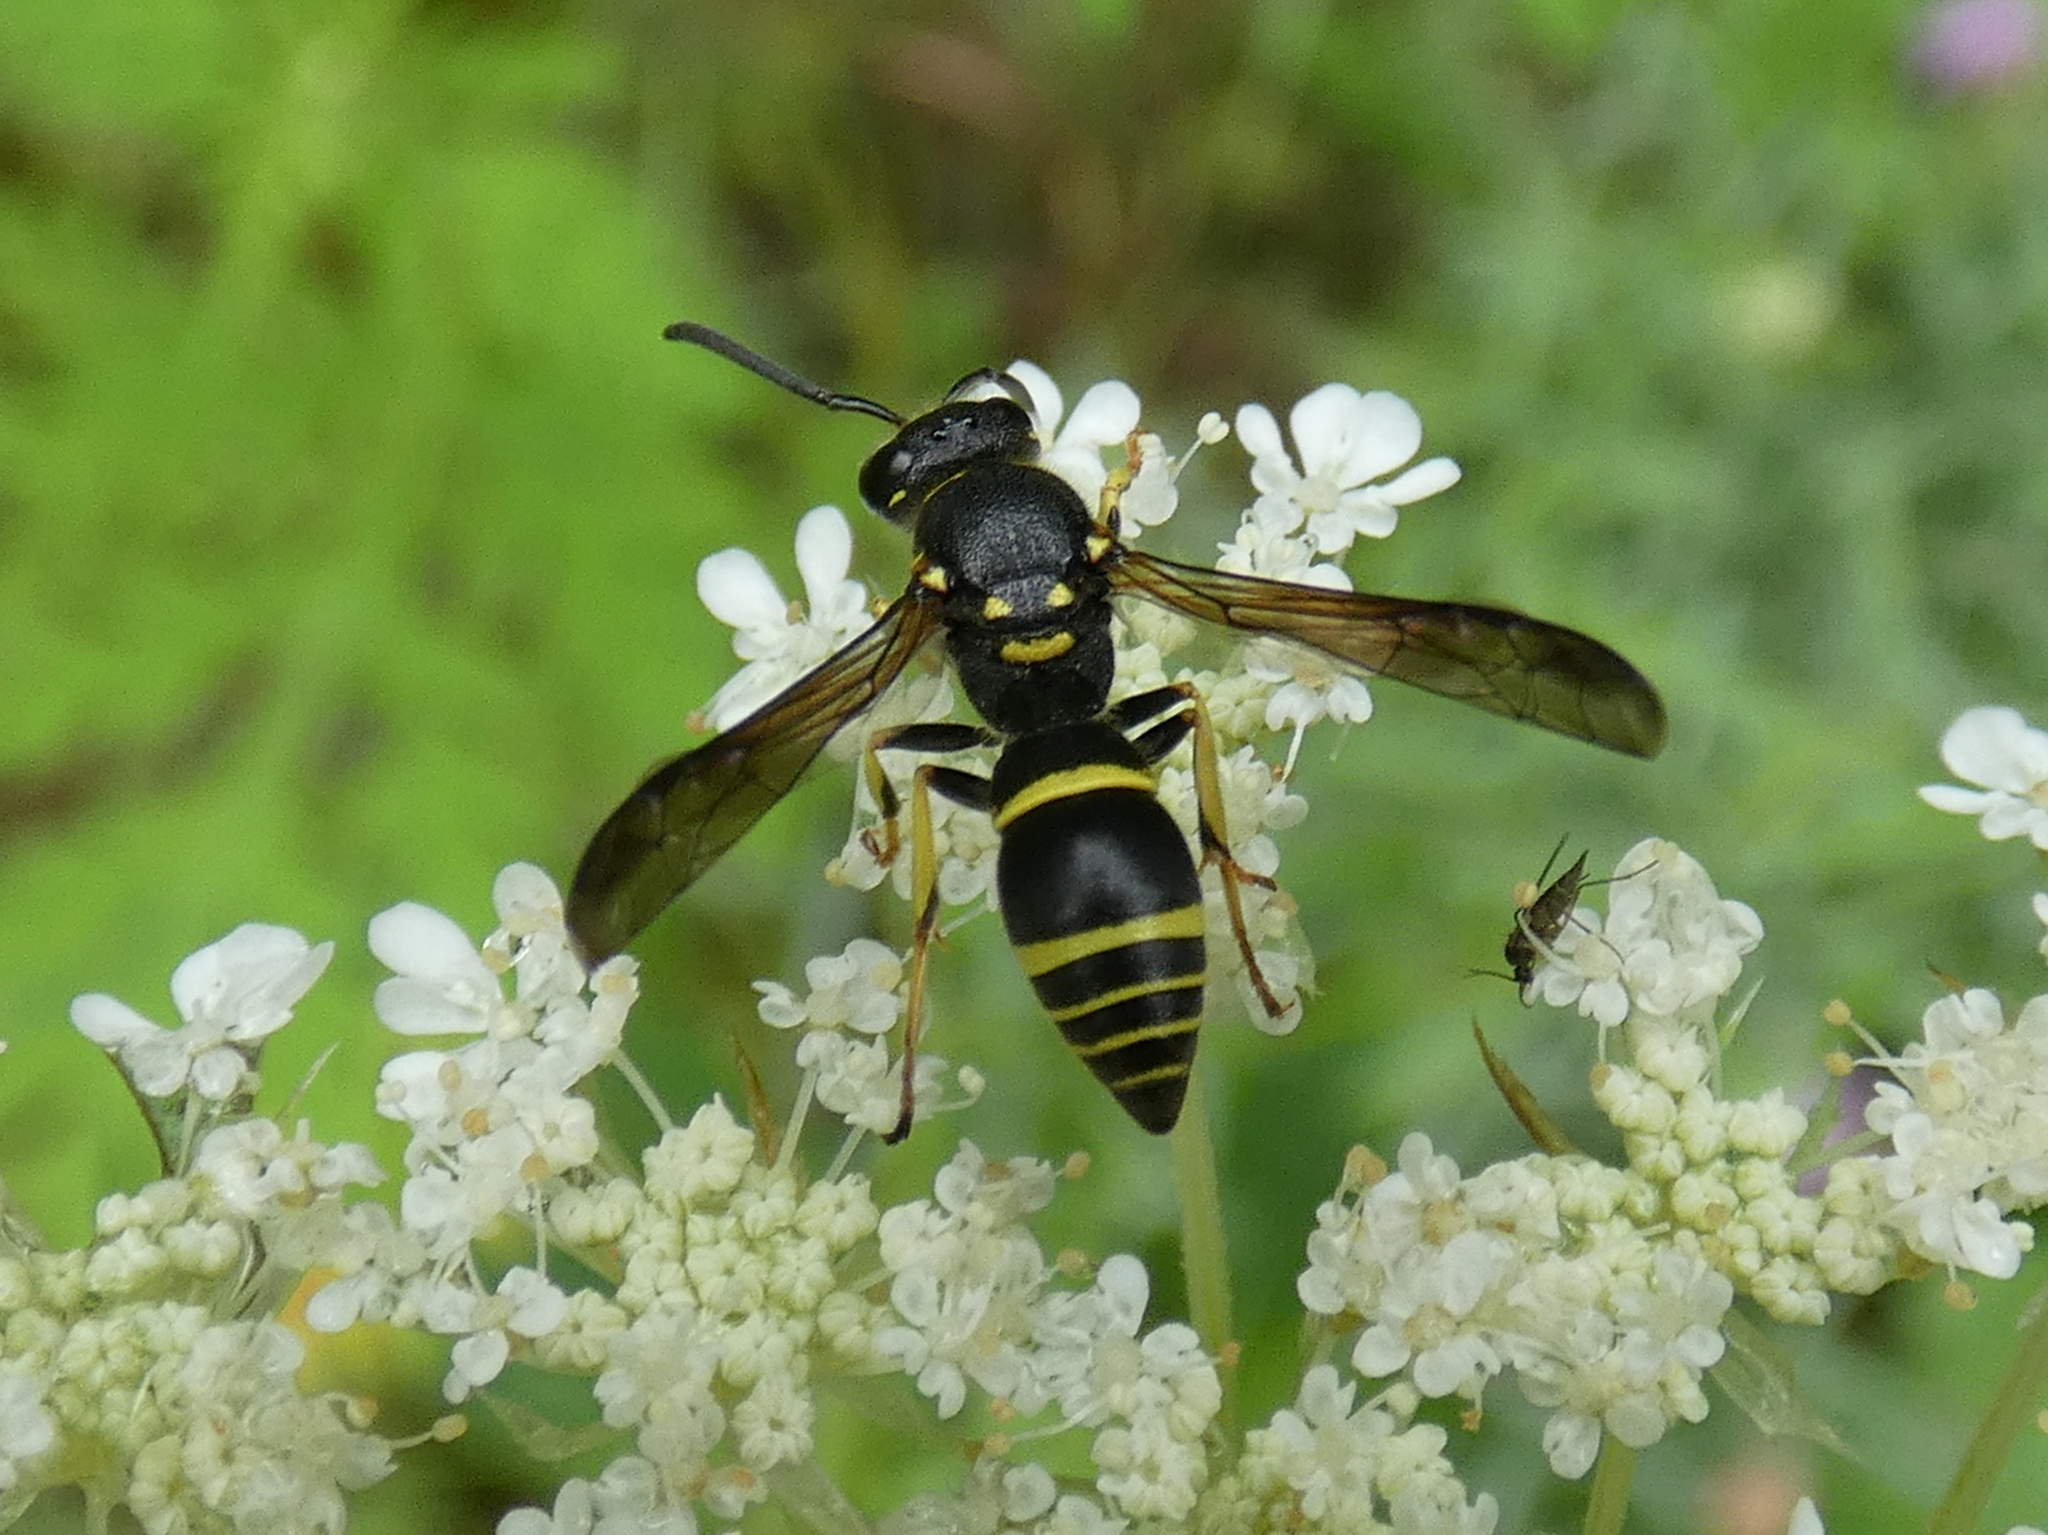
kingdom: Animalia
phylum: Arthropoda
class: Insecta
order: Hymenoptera
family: Vespidae
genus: Ancistrocerus
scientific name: Ancistrocerus adiabatus
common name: Bramble mason wasp
